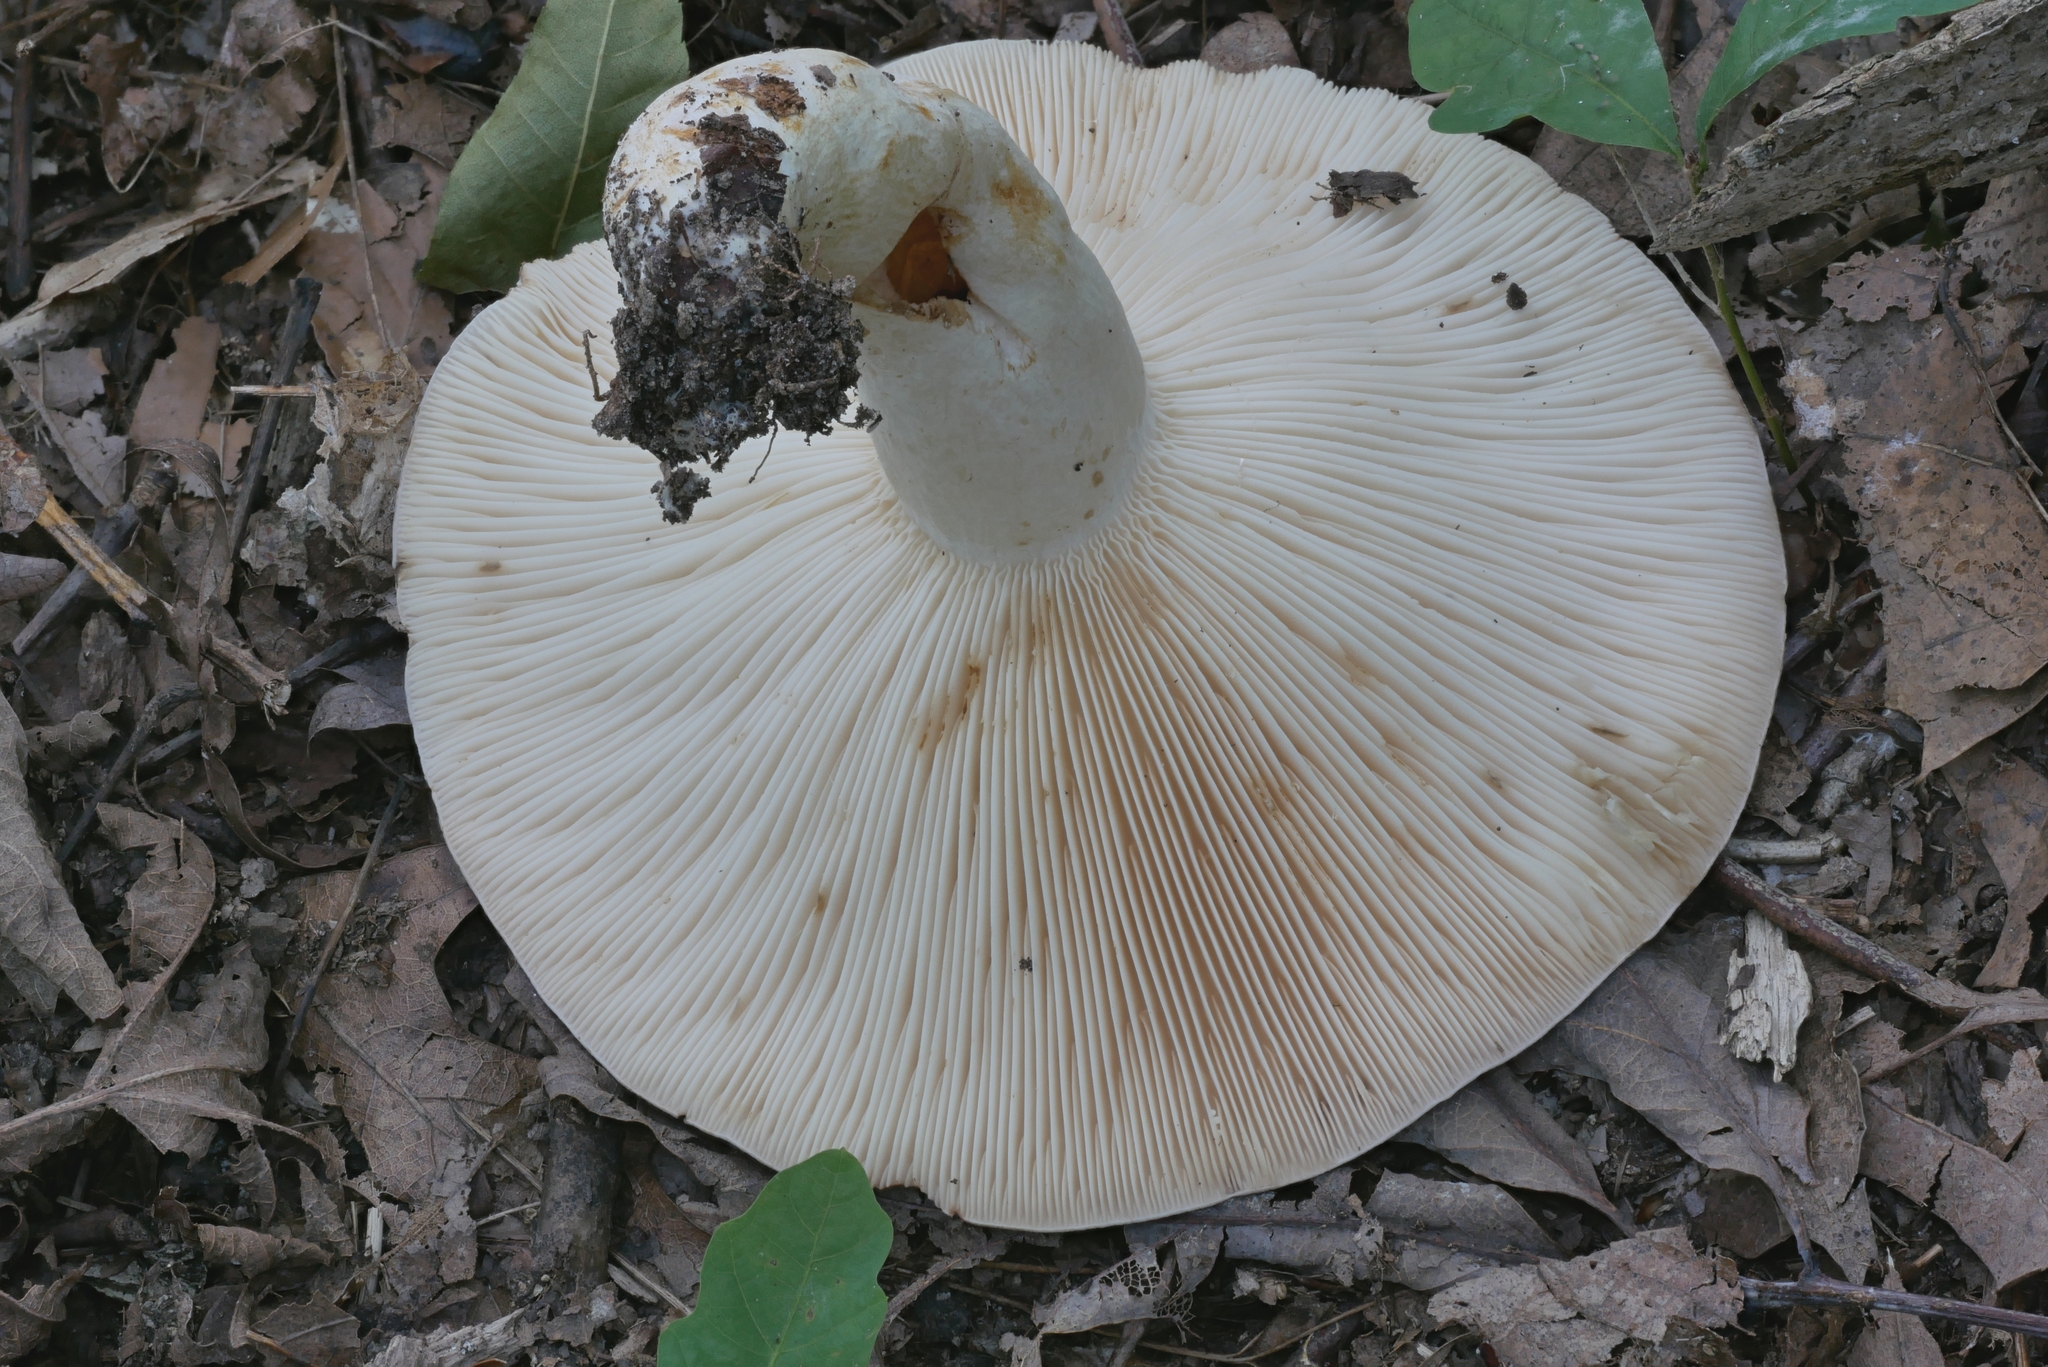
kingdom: Fungi
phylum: Basidiomycota
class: Agaricomycetes
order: Russulales
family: Russulaceae
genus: Lactarius
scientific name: Lactarius argillaceifolius
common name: Clay-gilled milkcap
